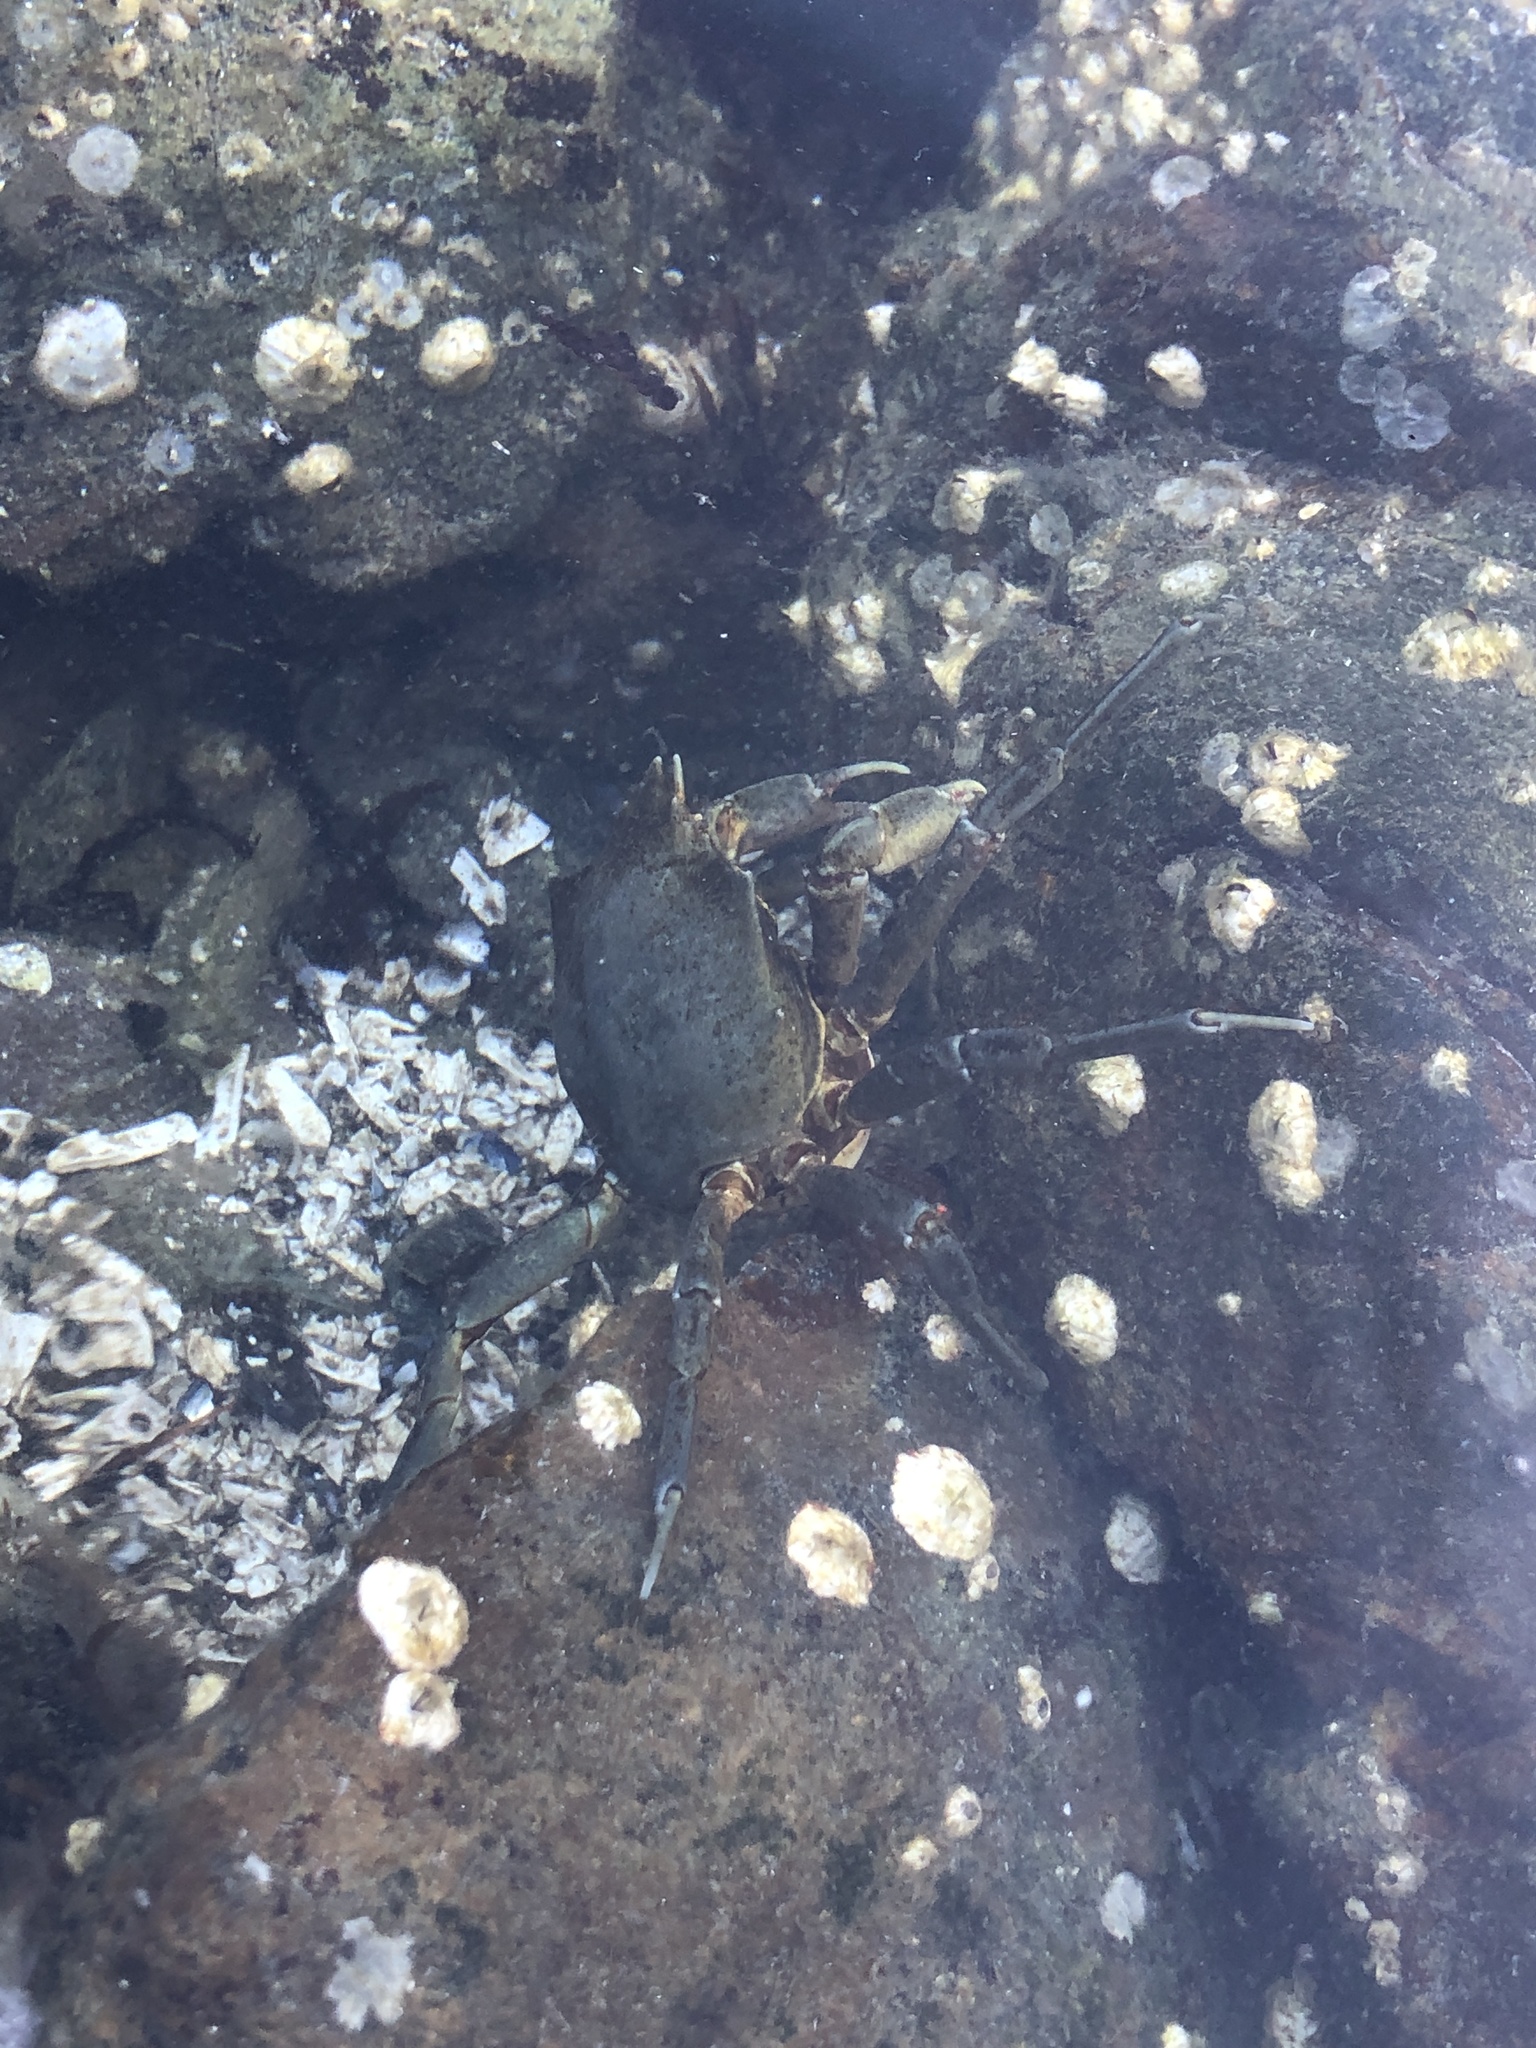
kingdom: Animalia
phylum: Arthropoda
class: Malacostraca
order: Decapoda
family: Epialtidae
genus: Pugettia
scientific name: Pugettia producta
